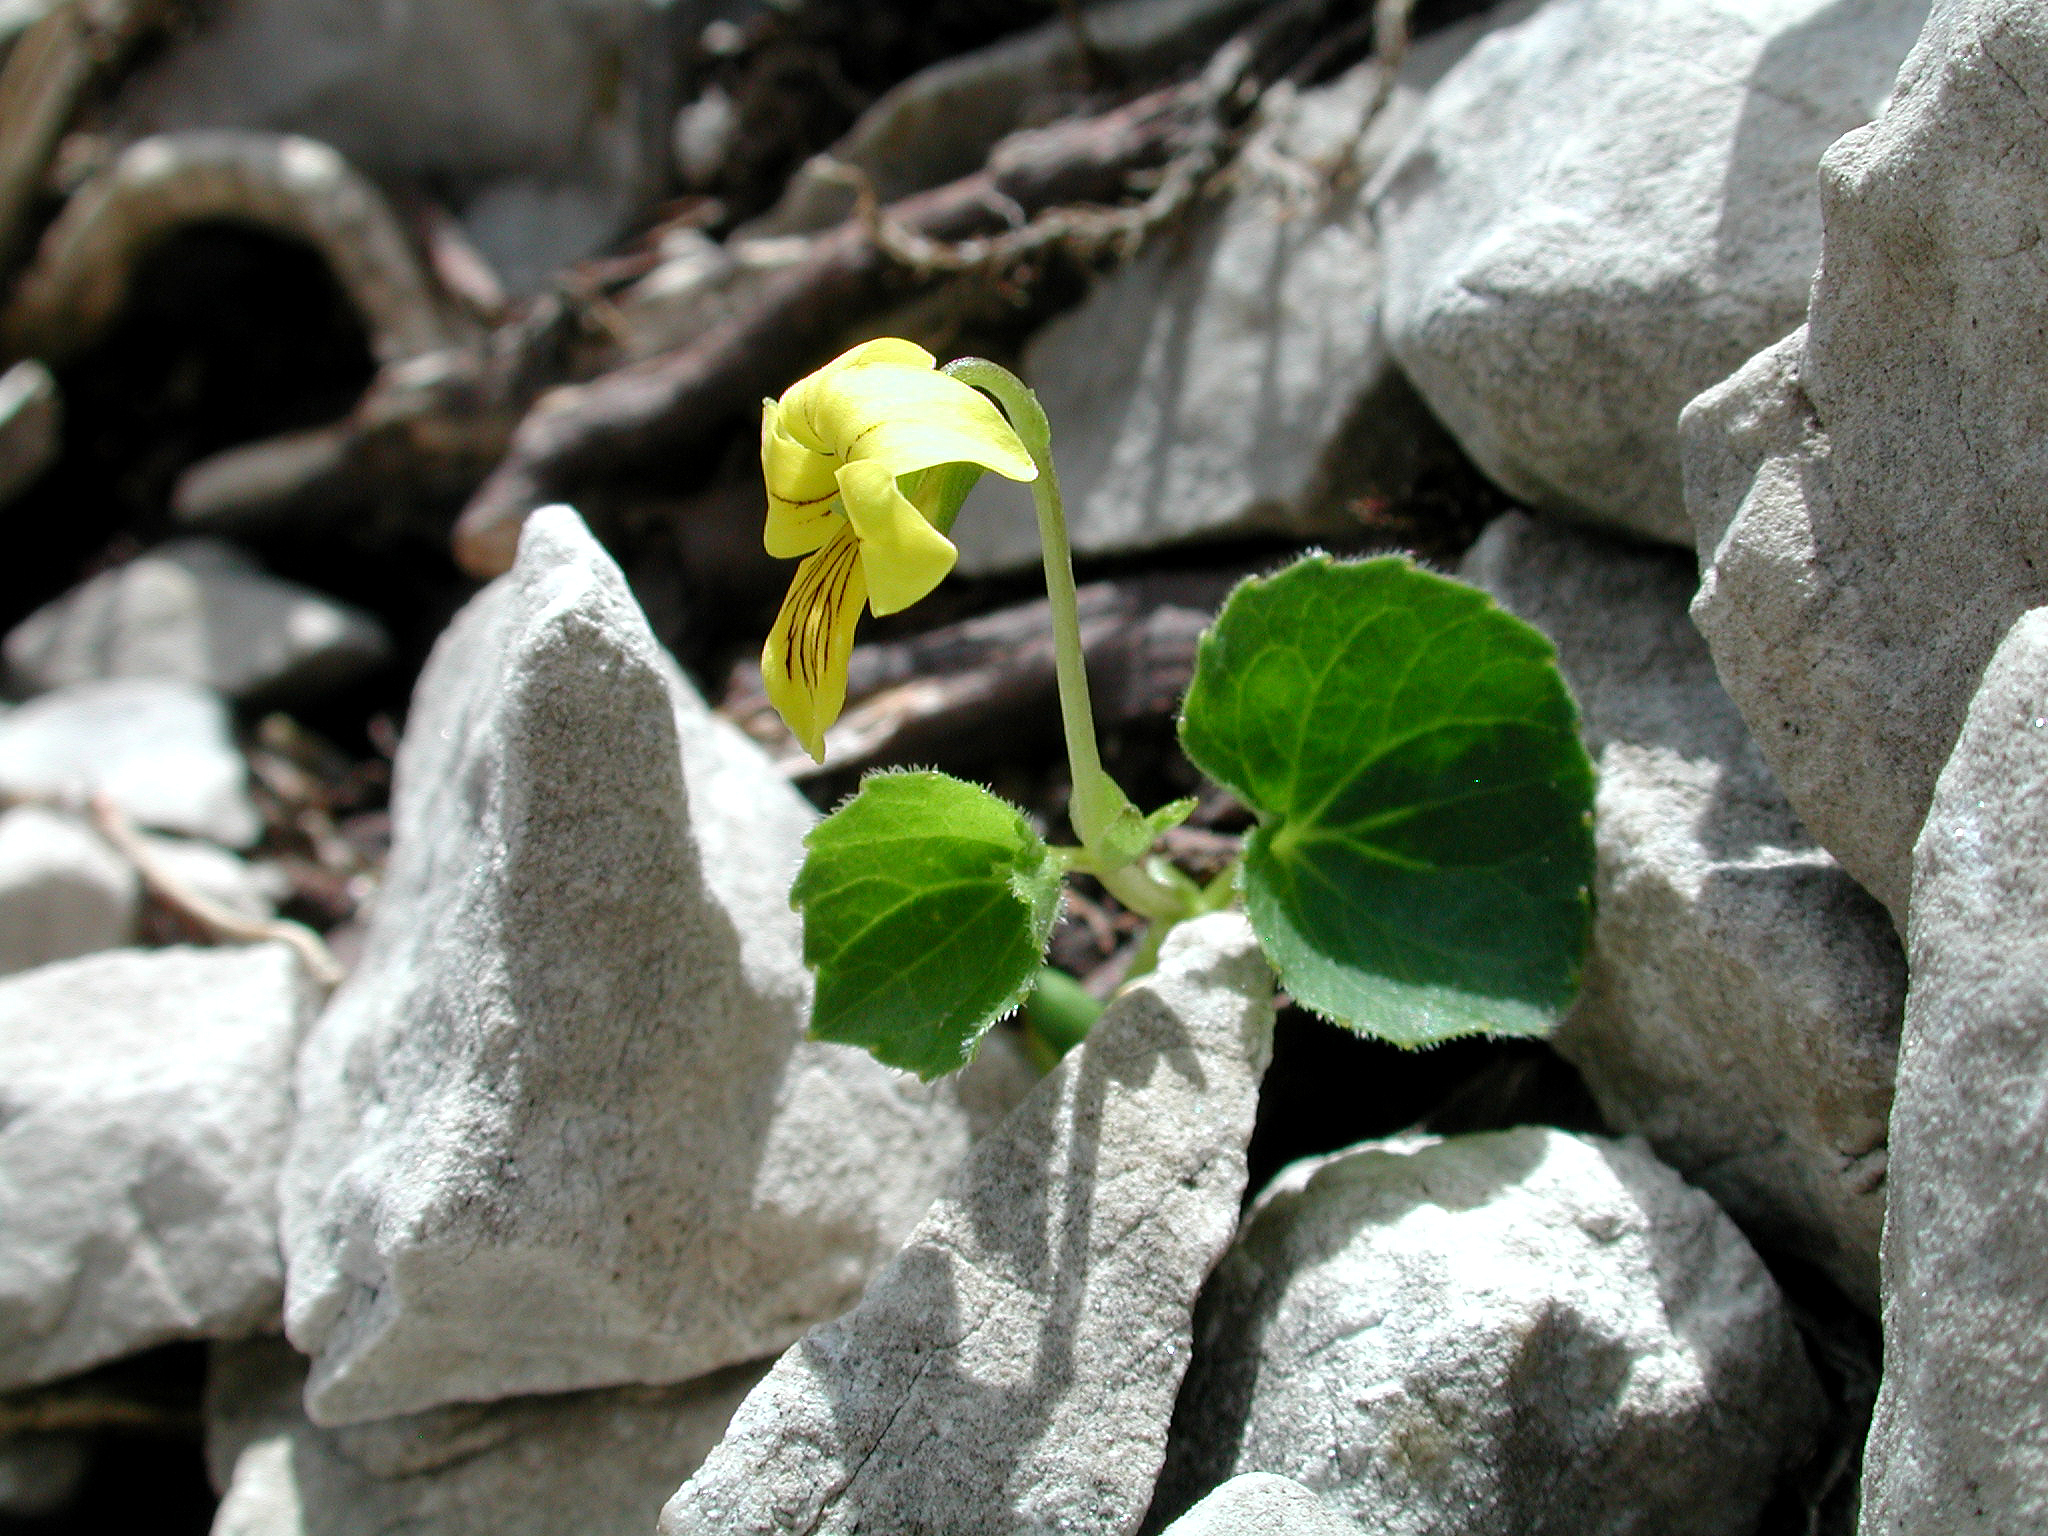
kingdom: Plantae
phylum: Tracheophyta
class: Magnoliopsida
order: Malpighiales
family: Violaceae
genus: Viola
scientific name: Viola biflora
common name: Alpine yellow violet
